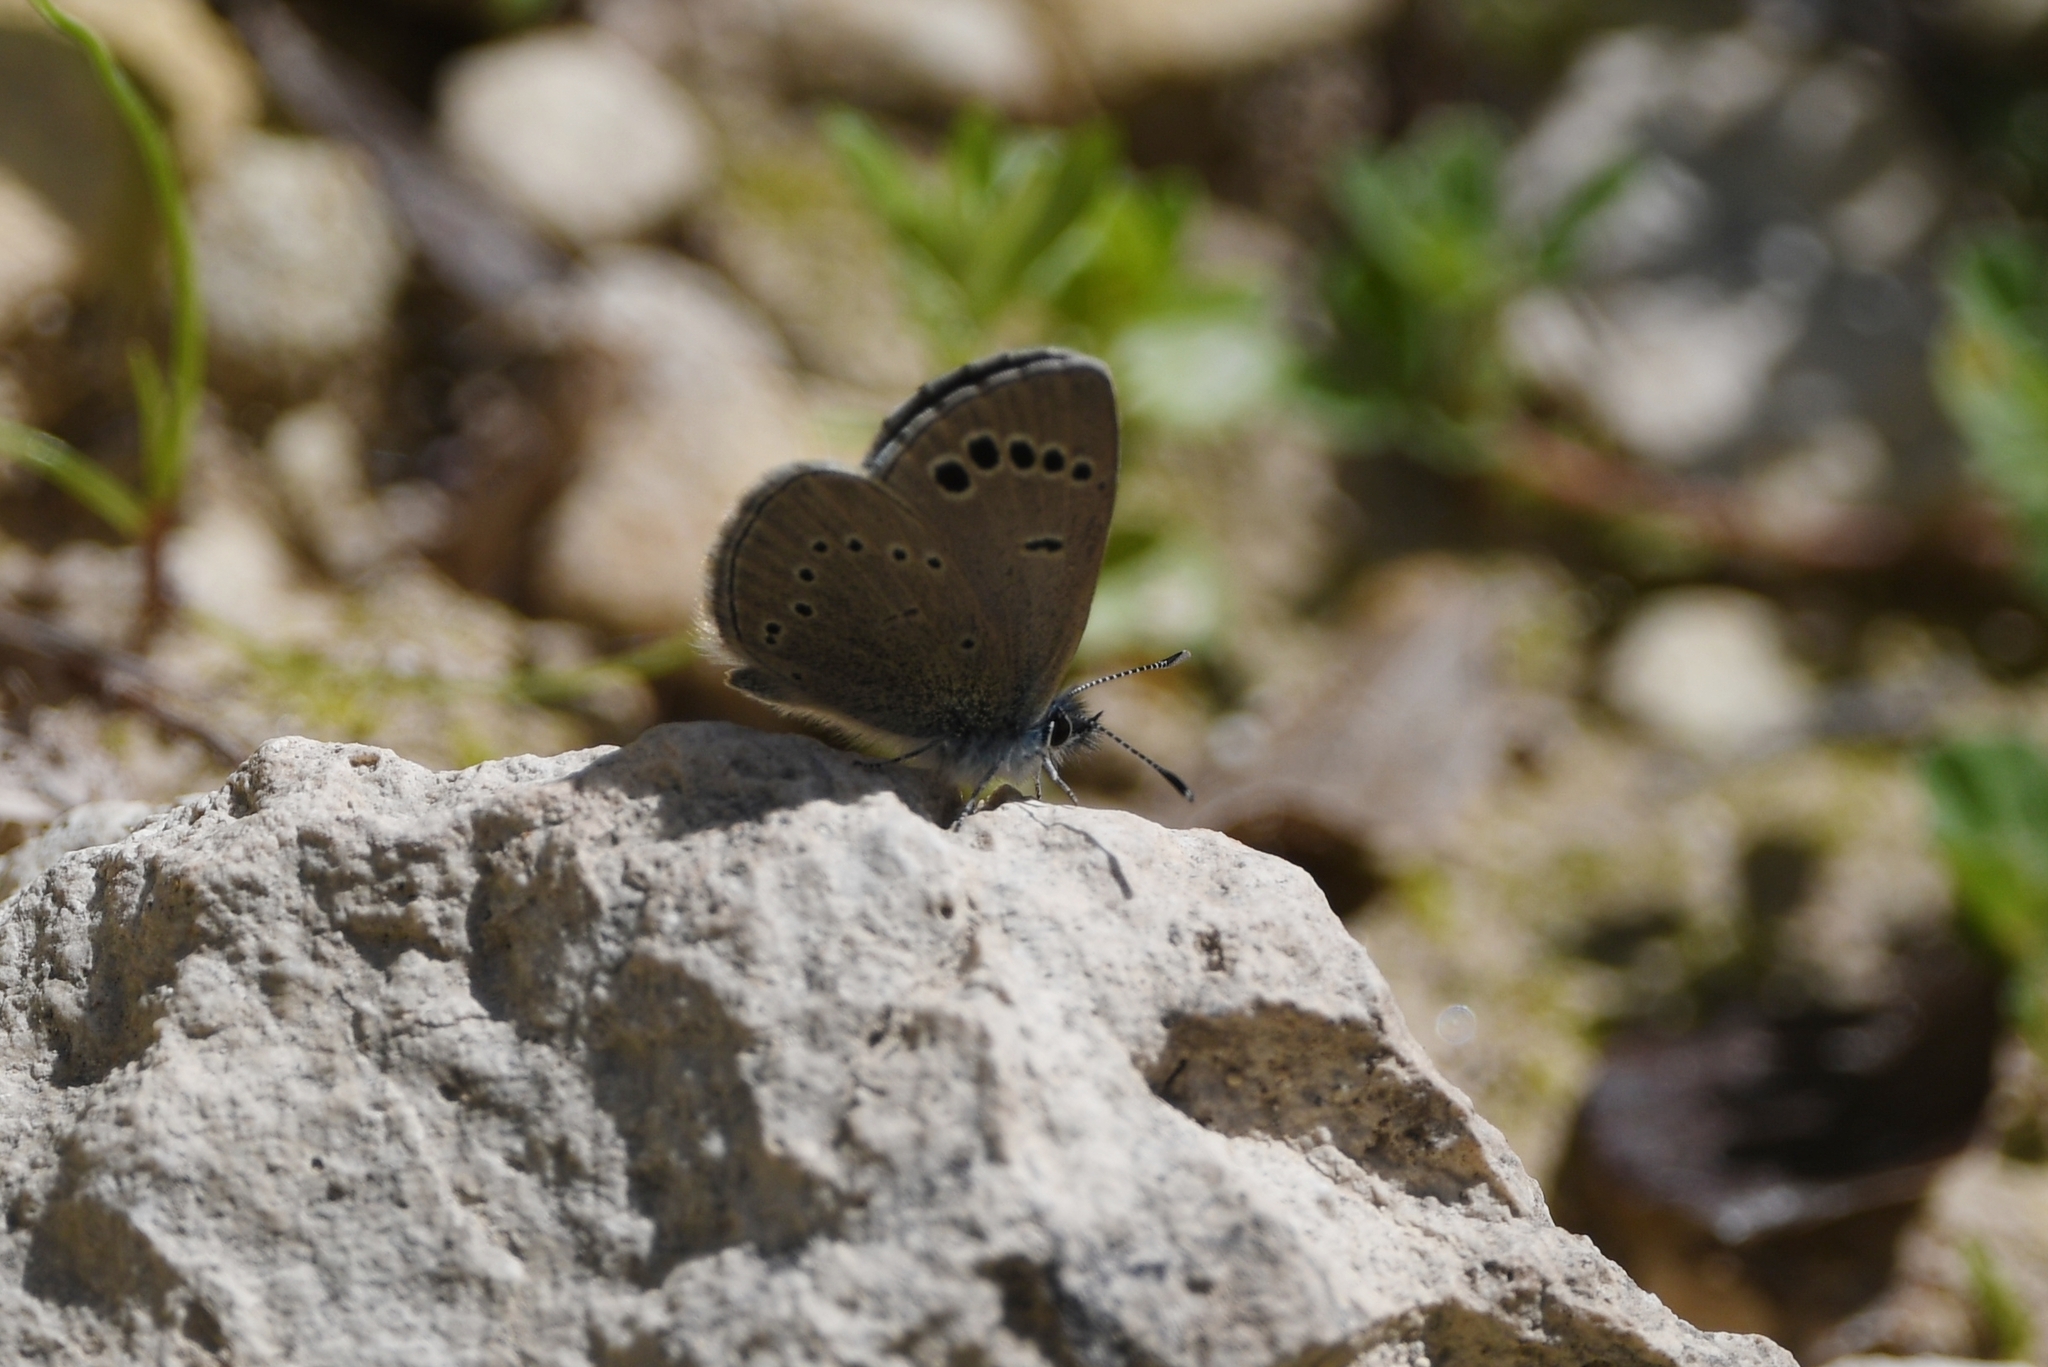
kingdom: Animalia
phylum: Arthropoda
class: Insecta
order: Lepidoptera
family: Lycaenidae
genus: Glaucopsyche
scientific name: Glaucopsyche paphos
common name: Paphos blue
